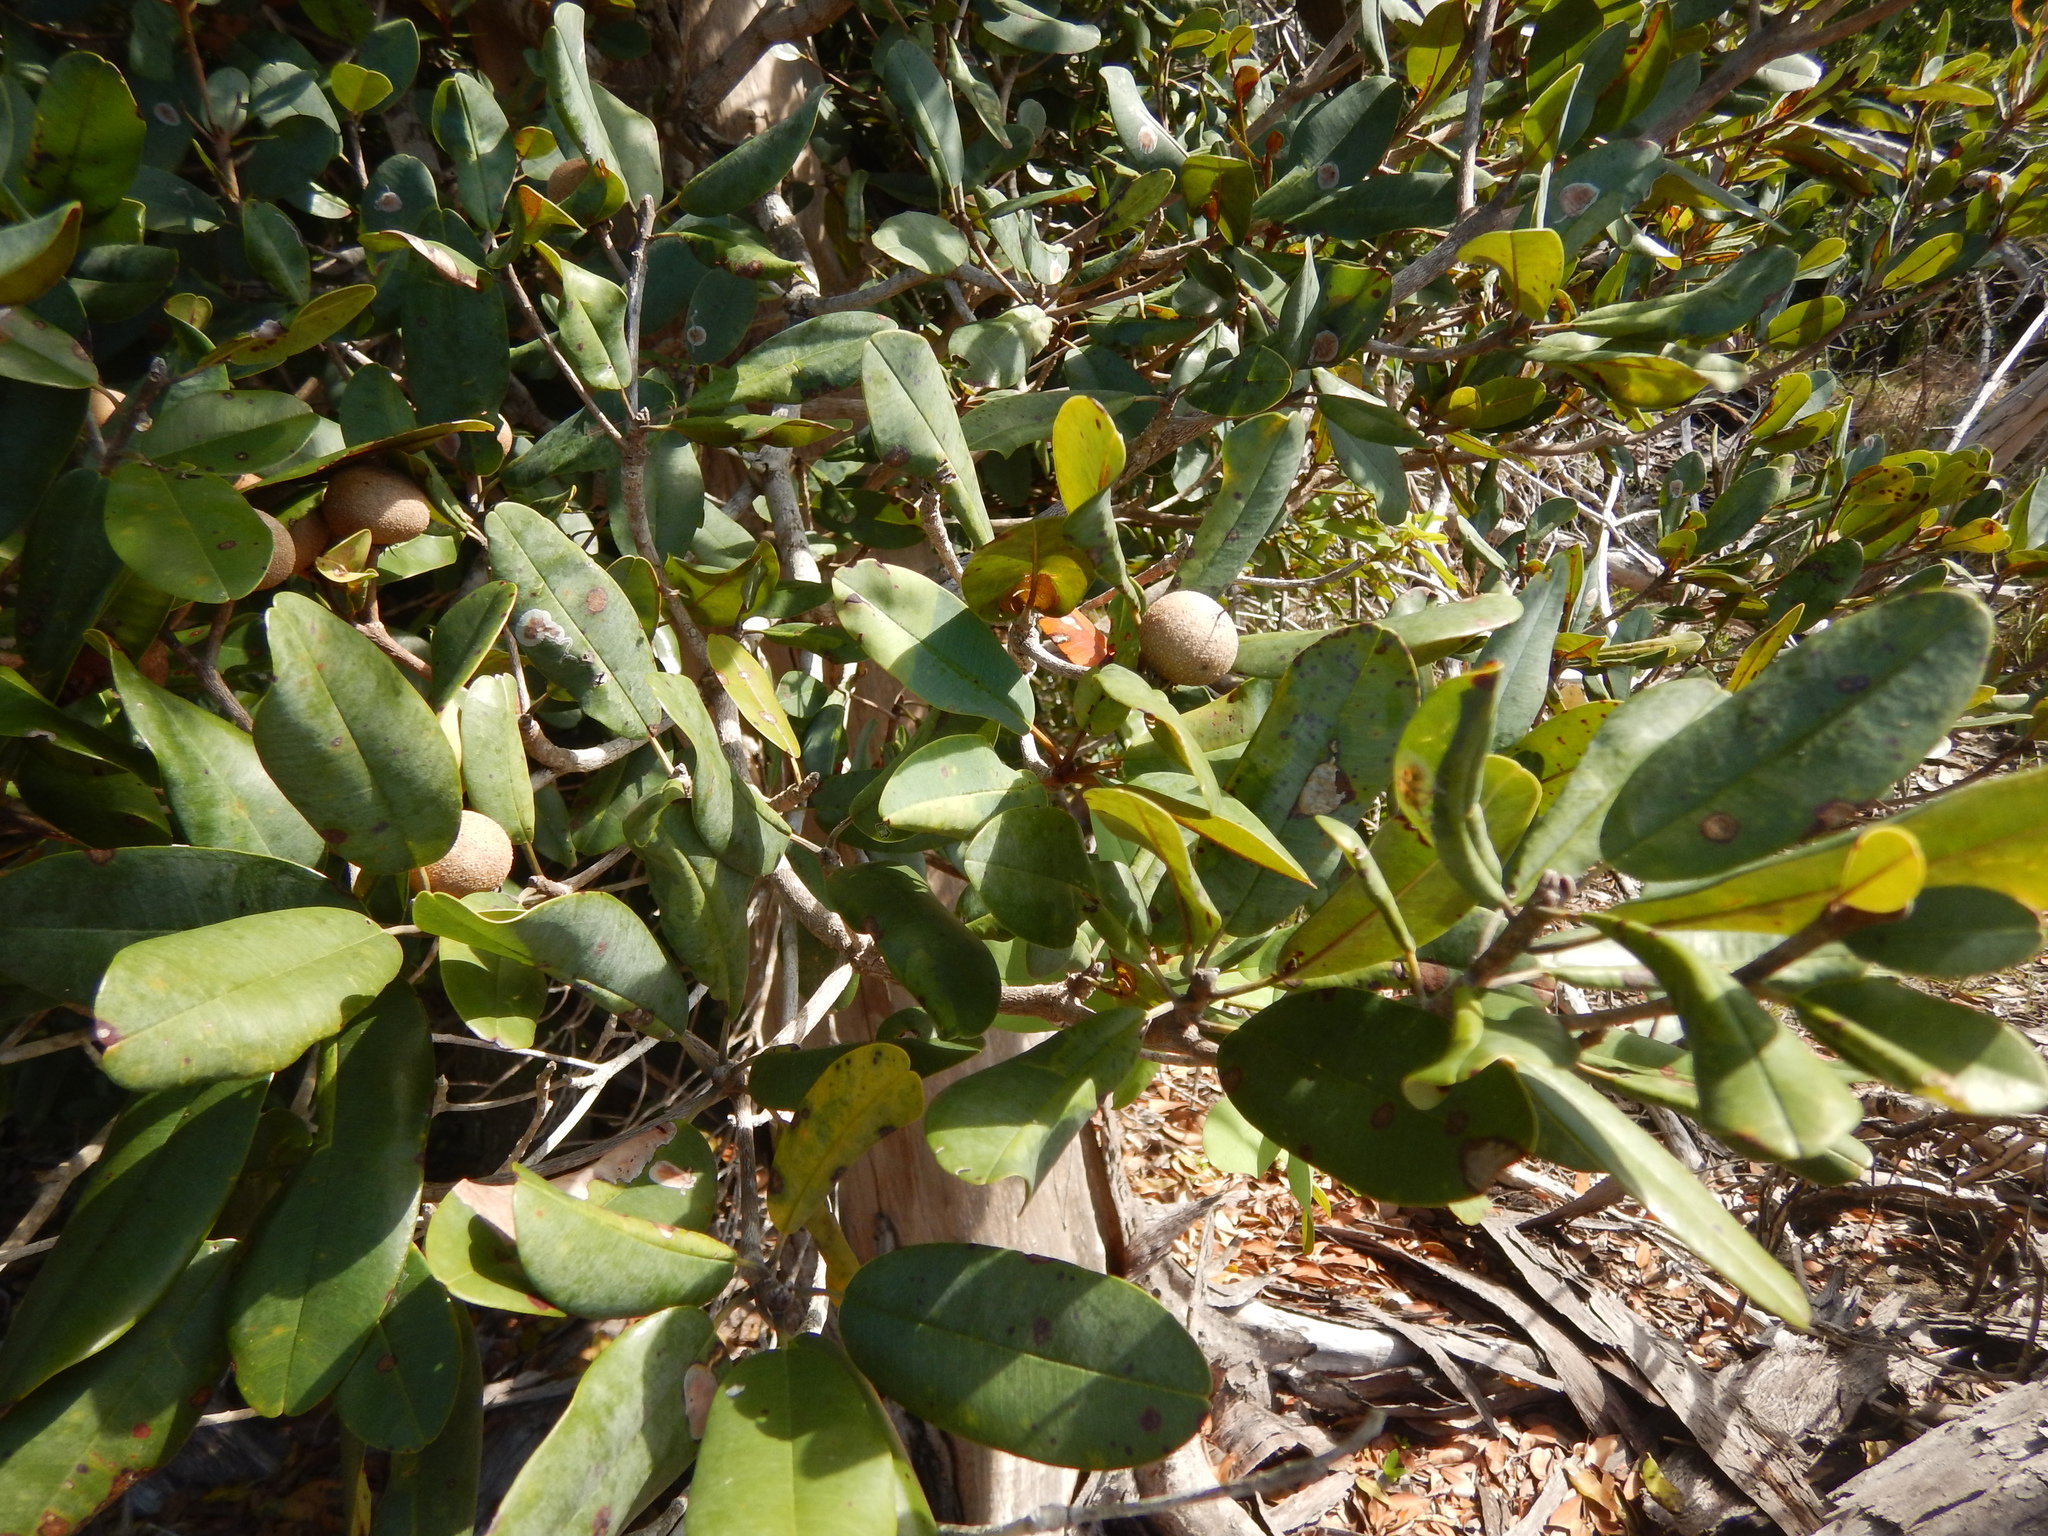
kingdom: Plantae
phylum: Tracheophyta
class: Magnoliopsida
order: Ericales
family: Sapotaceae
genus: Manilkara
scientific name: Manilkara jaimiqui
